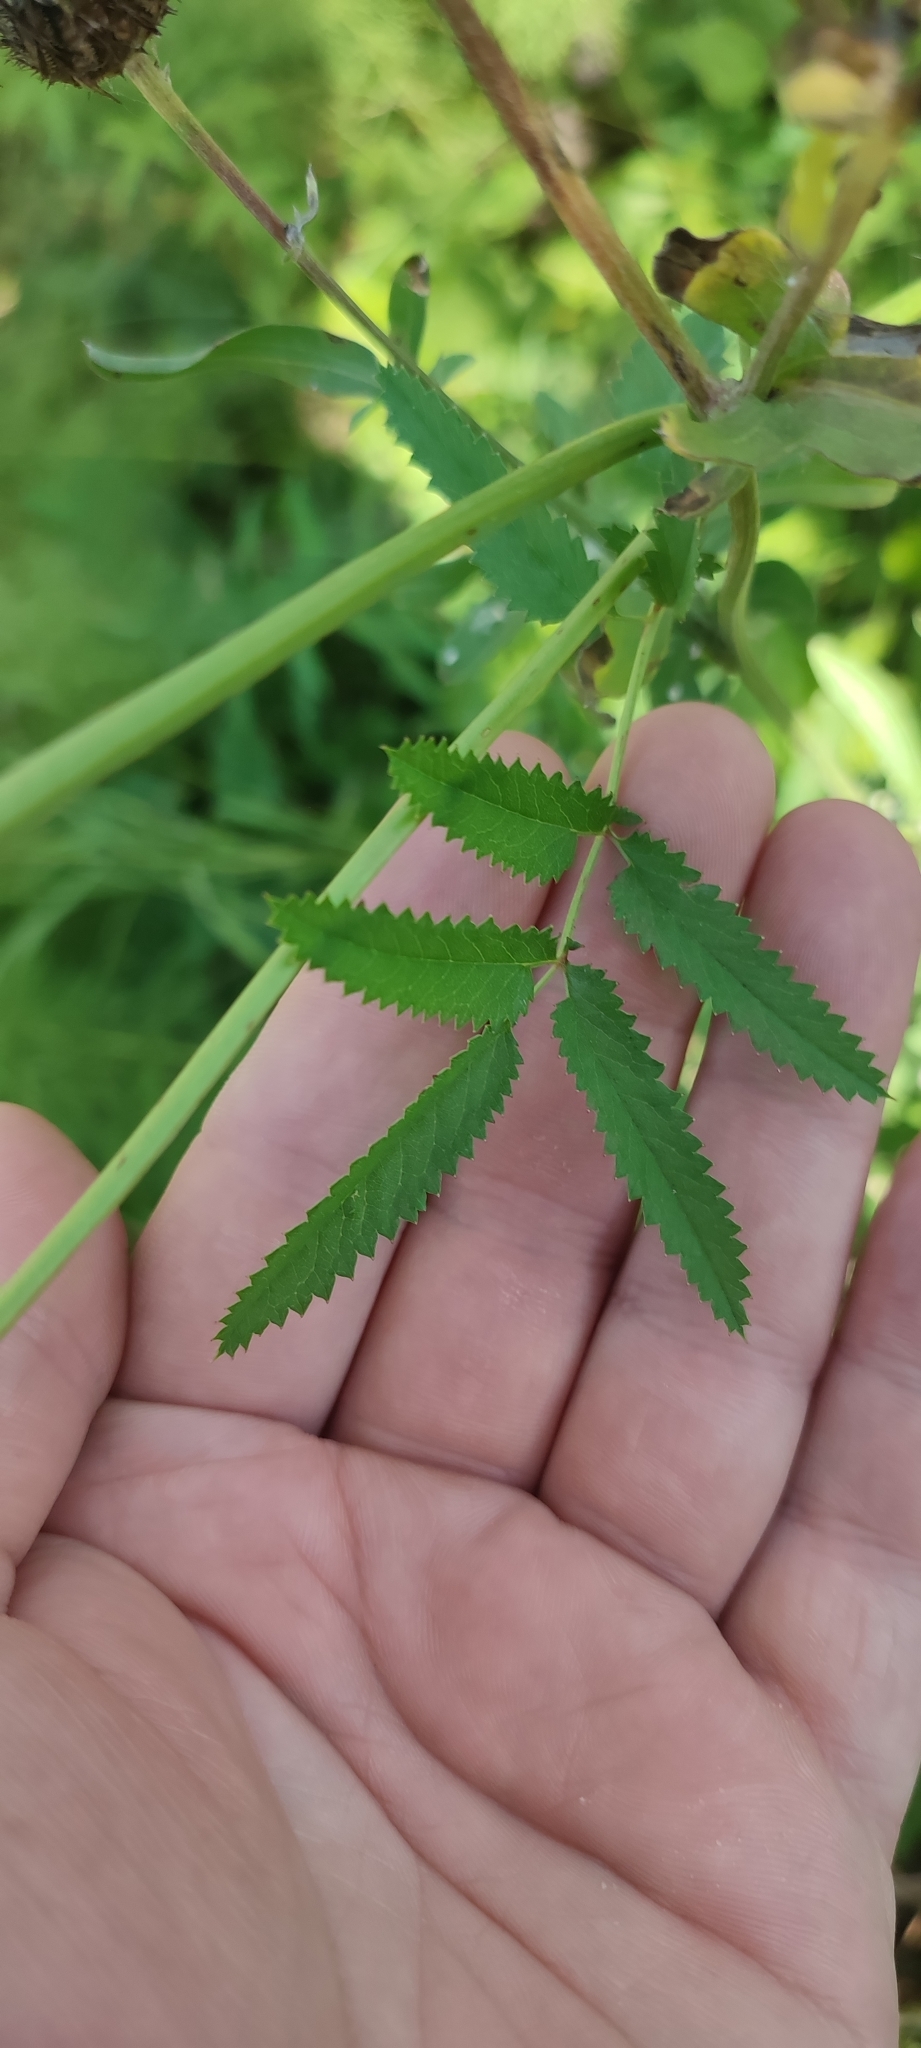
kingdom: Plantae
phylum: Tracheophyta
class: Magnoliopsida
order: Rosales
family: Rosaceae
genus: Sanguisorba
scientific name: Sanguisorba officinalis
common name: Great burnet
